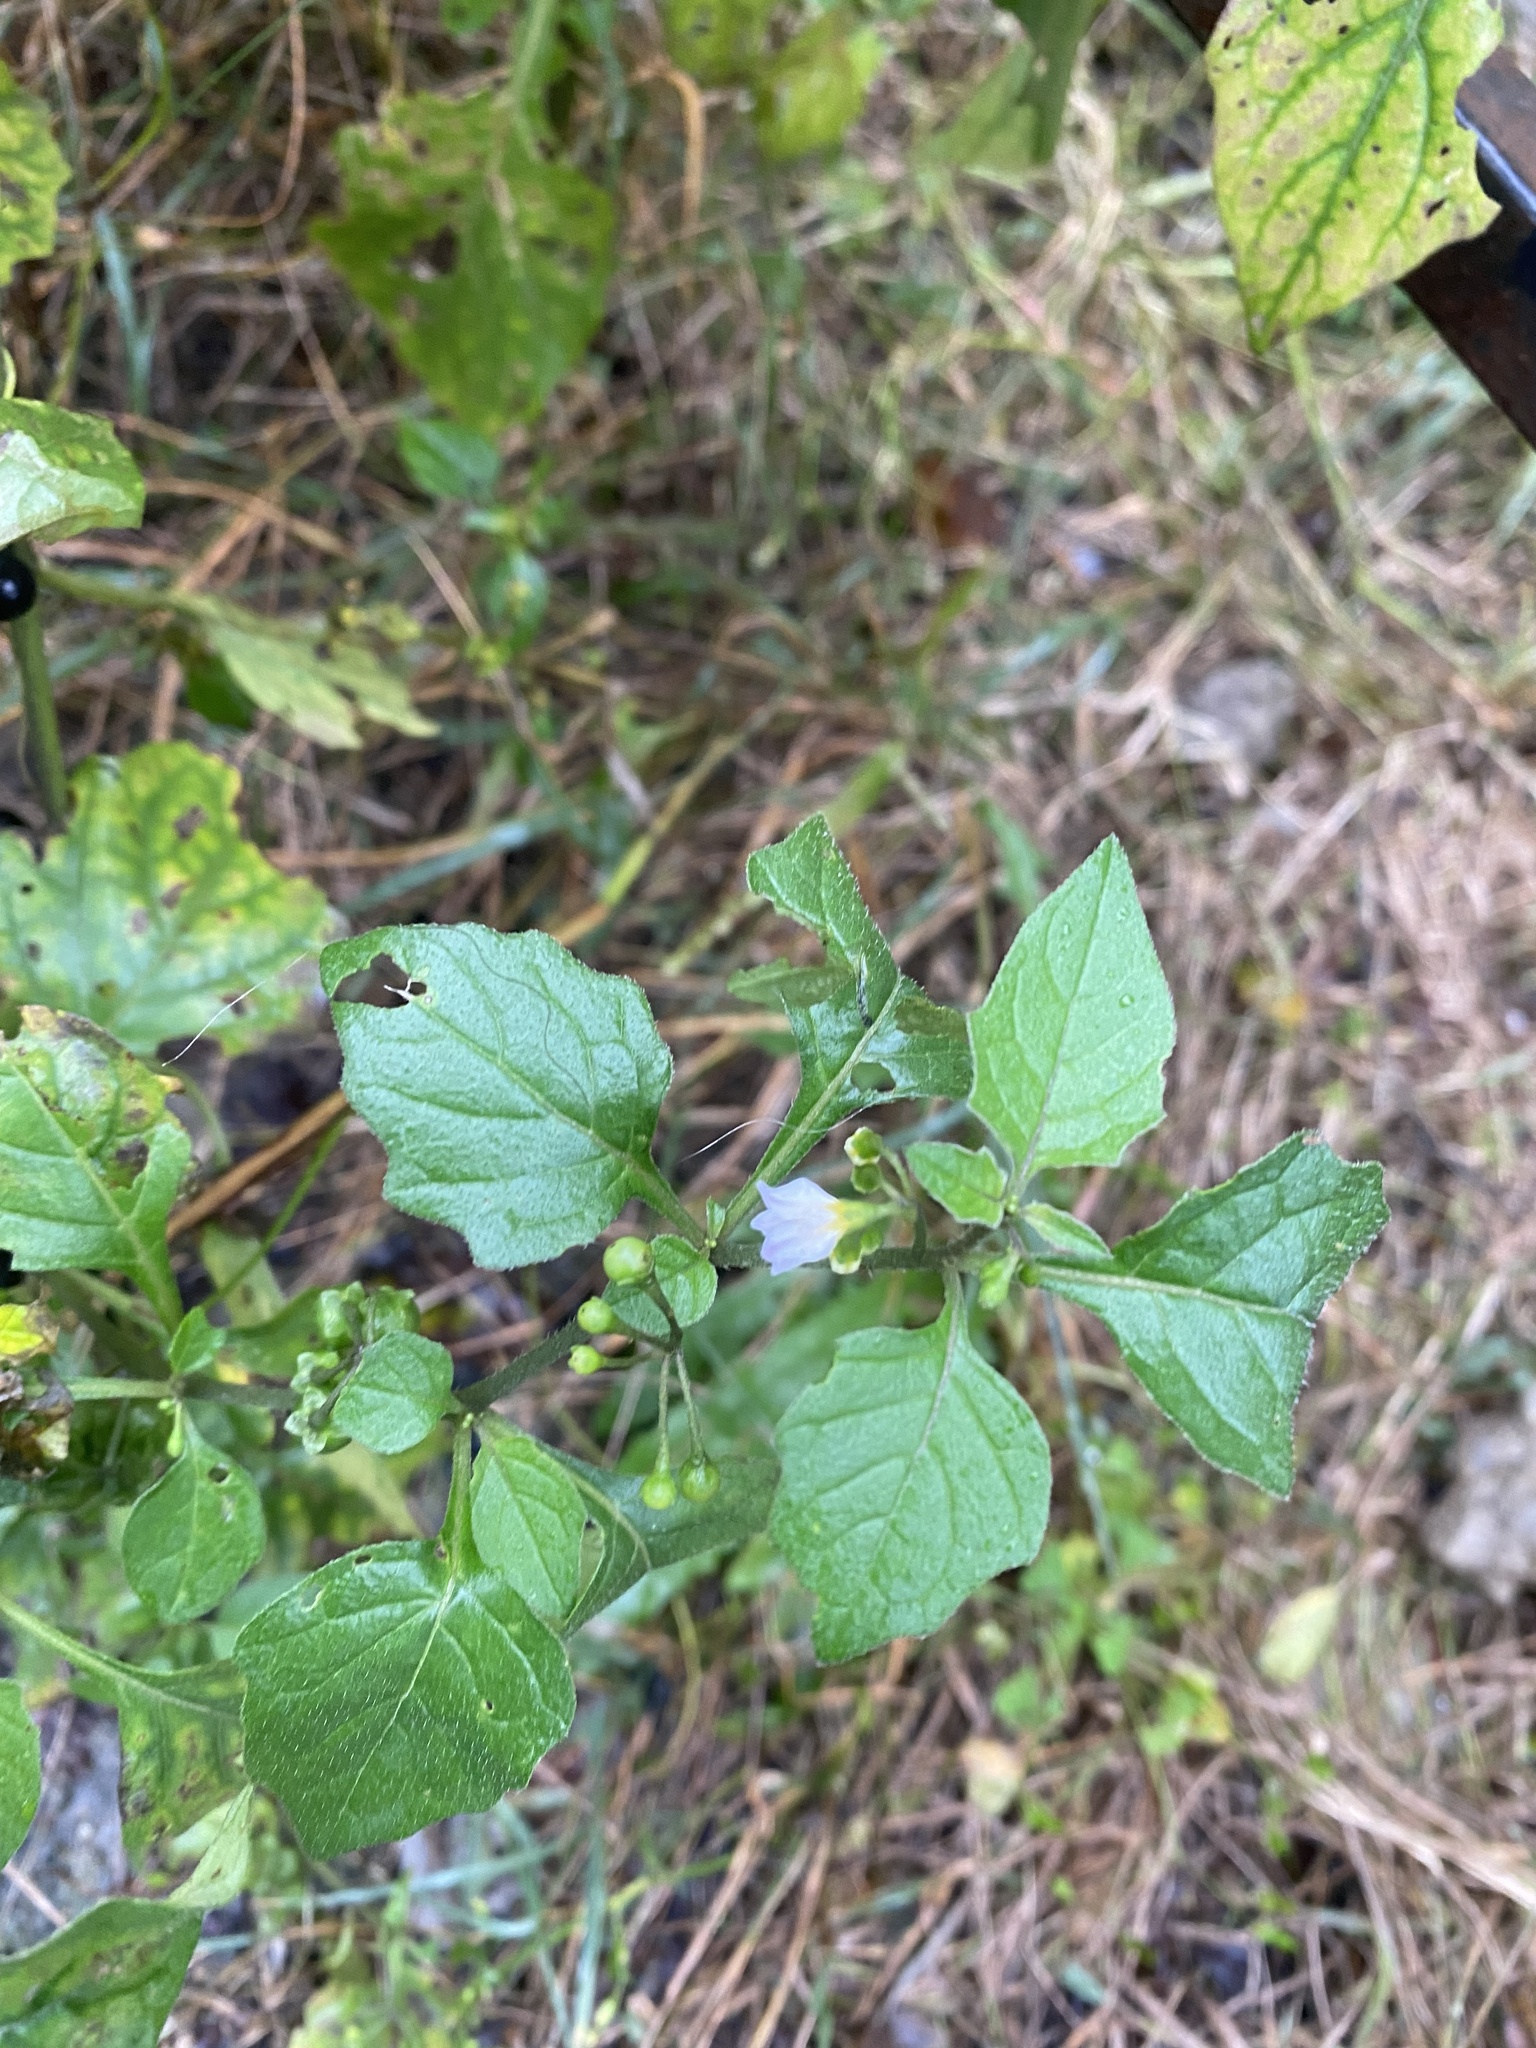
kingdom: Plantae
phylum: Tracheophyta
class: Magnoliopsida
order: Solanales
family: Solanaceae
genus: Solanum
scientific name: Solanum nigrum
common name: Black nightshade
